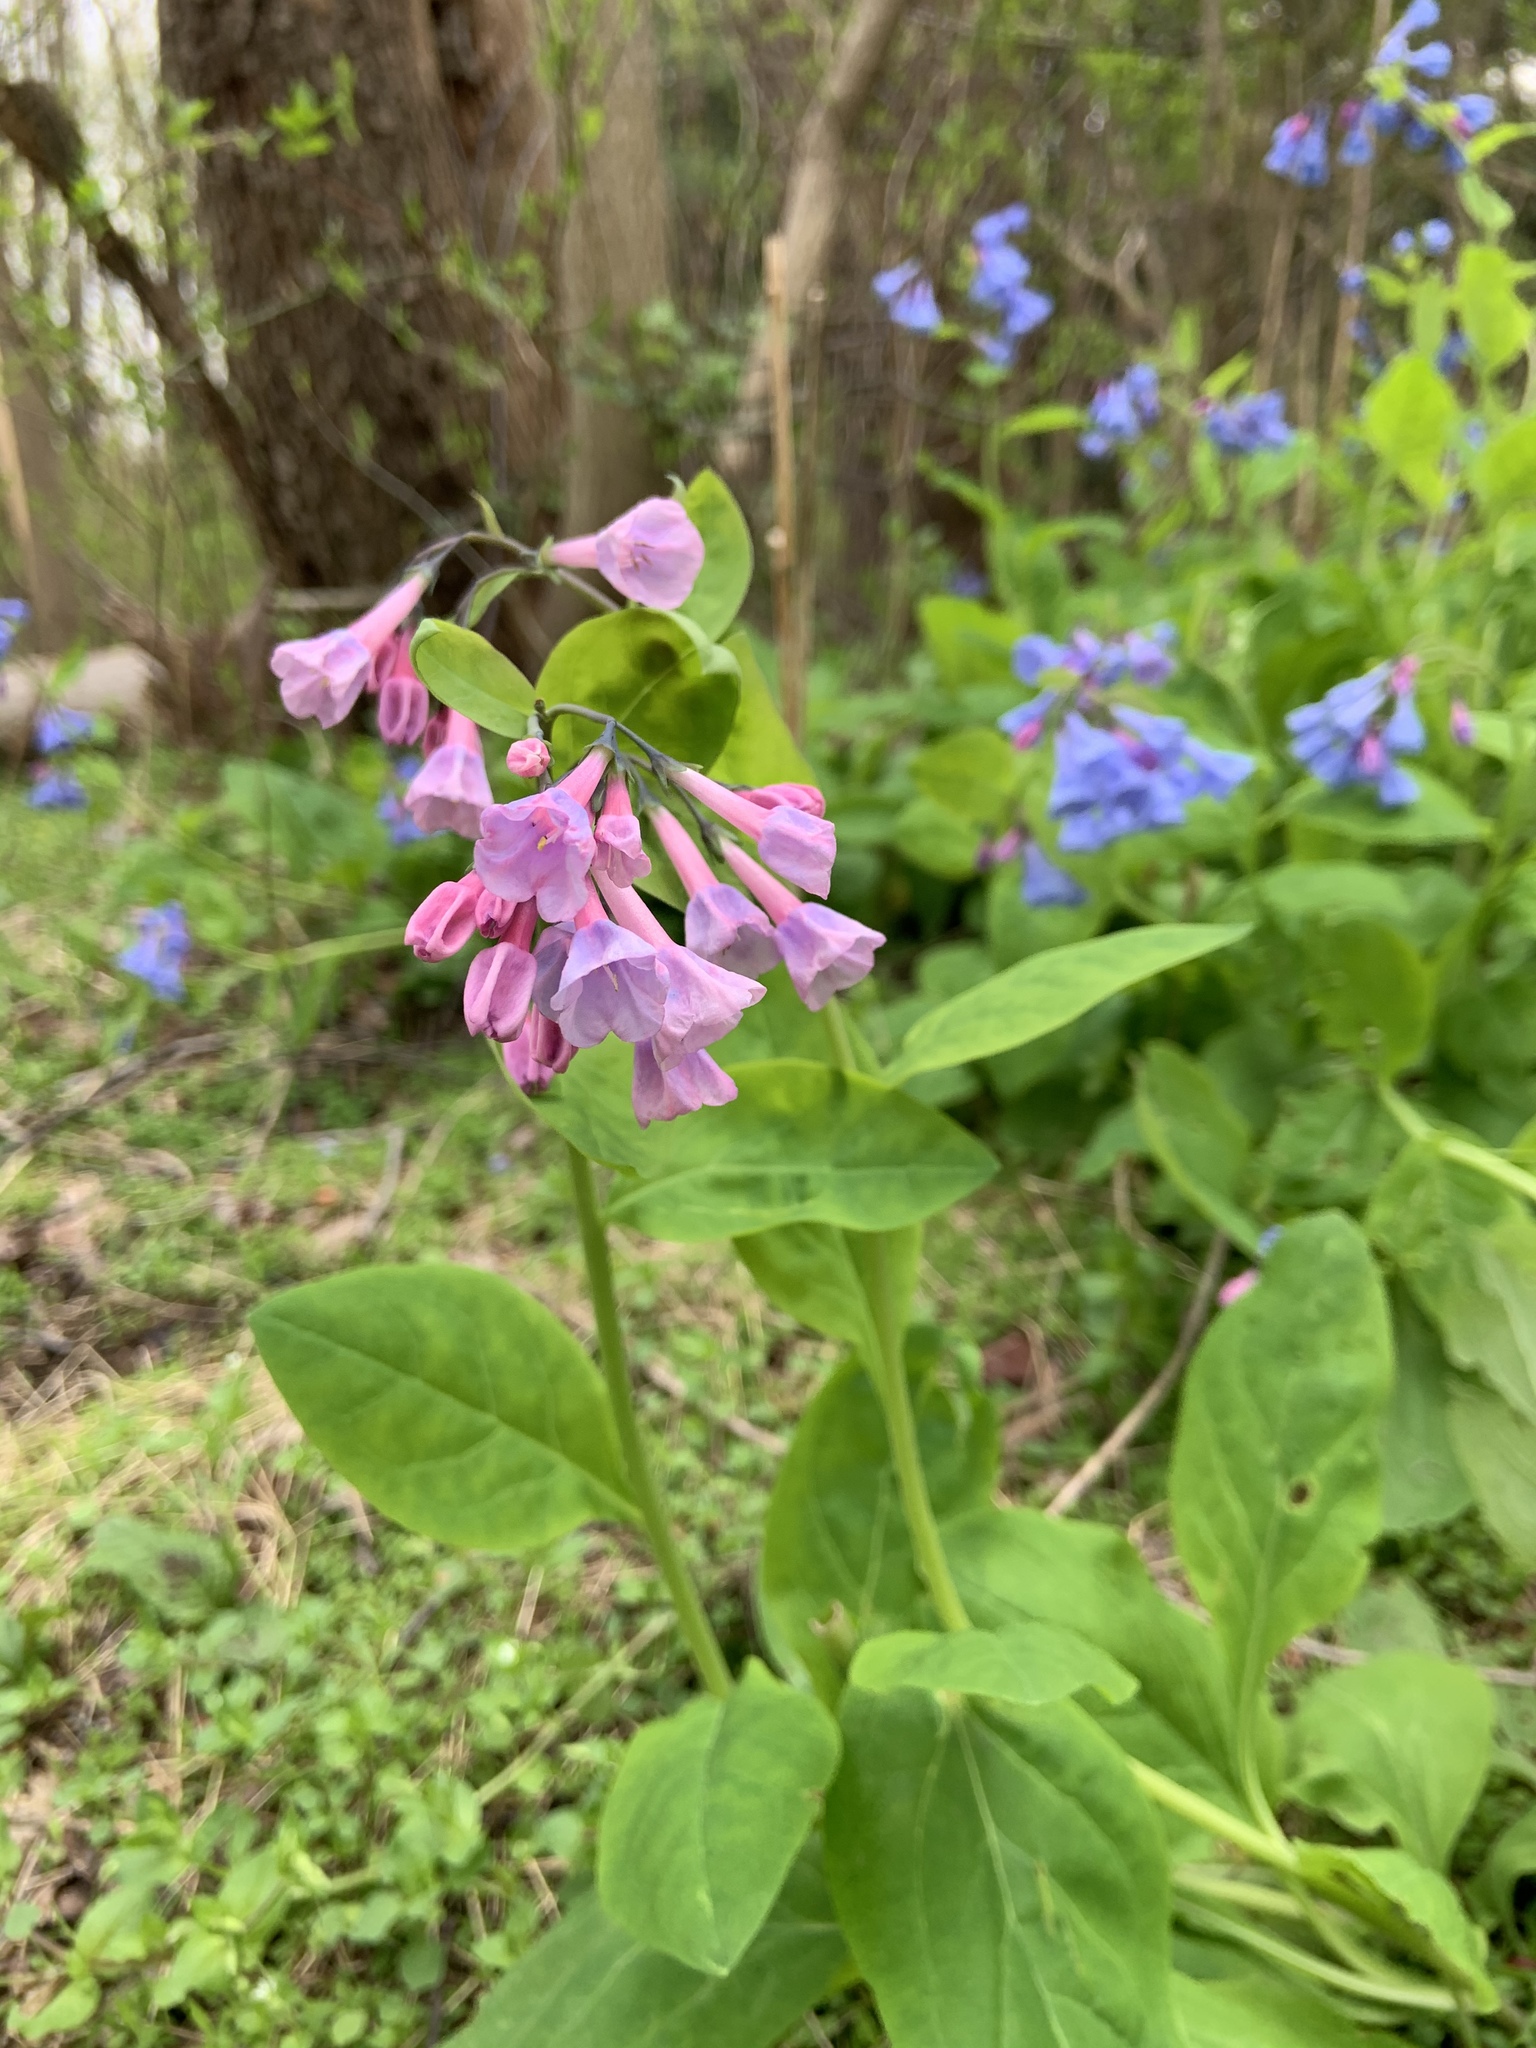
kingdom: Plantae
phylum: Tracheophyta
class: Magnoliopsida
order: Boraginales
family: Boraginaceae
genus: Mertensia
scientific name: Mertensia virginica
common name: Virginia bluebells
